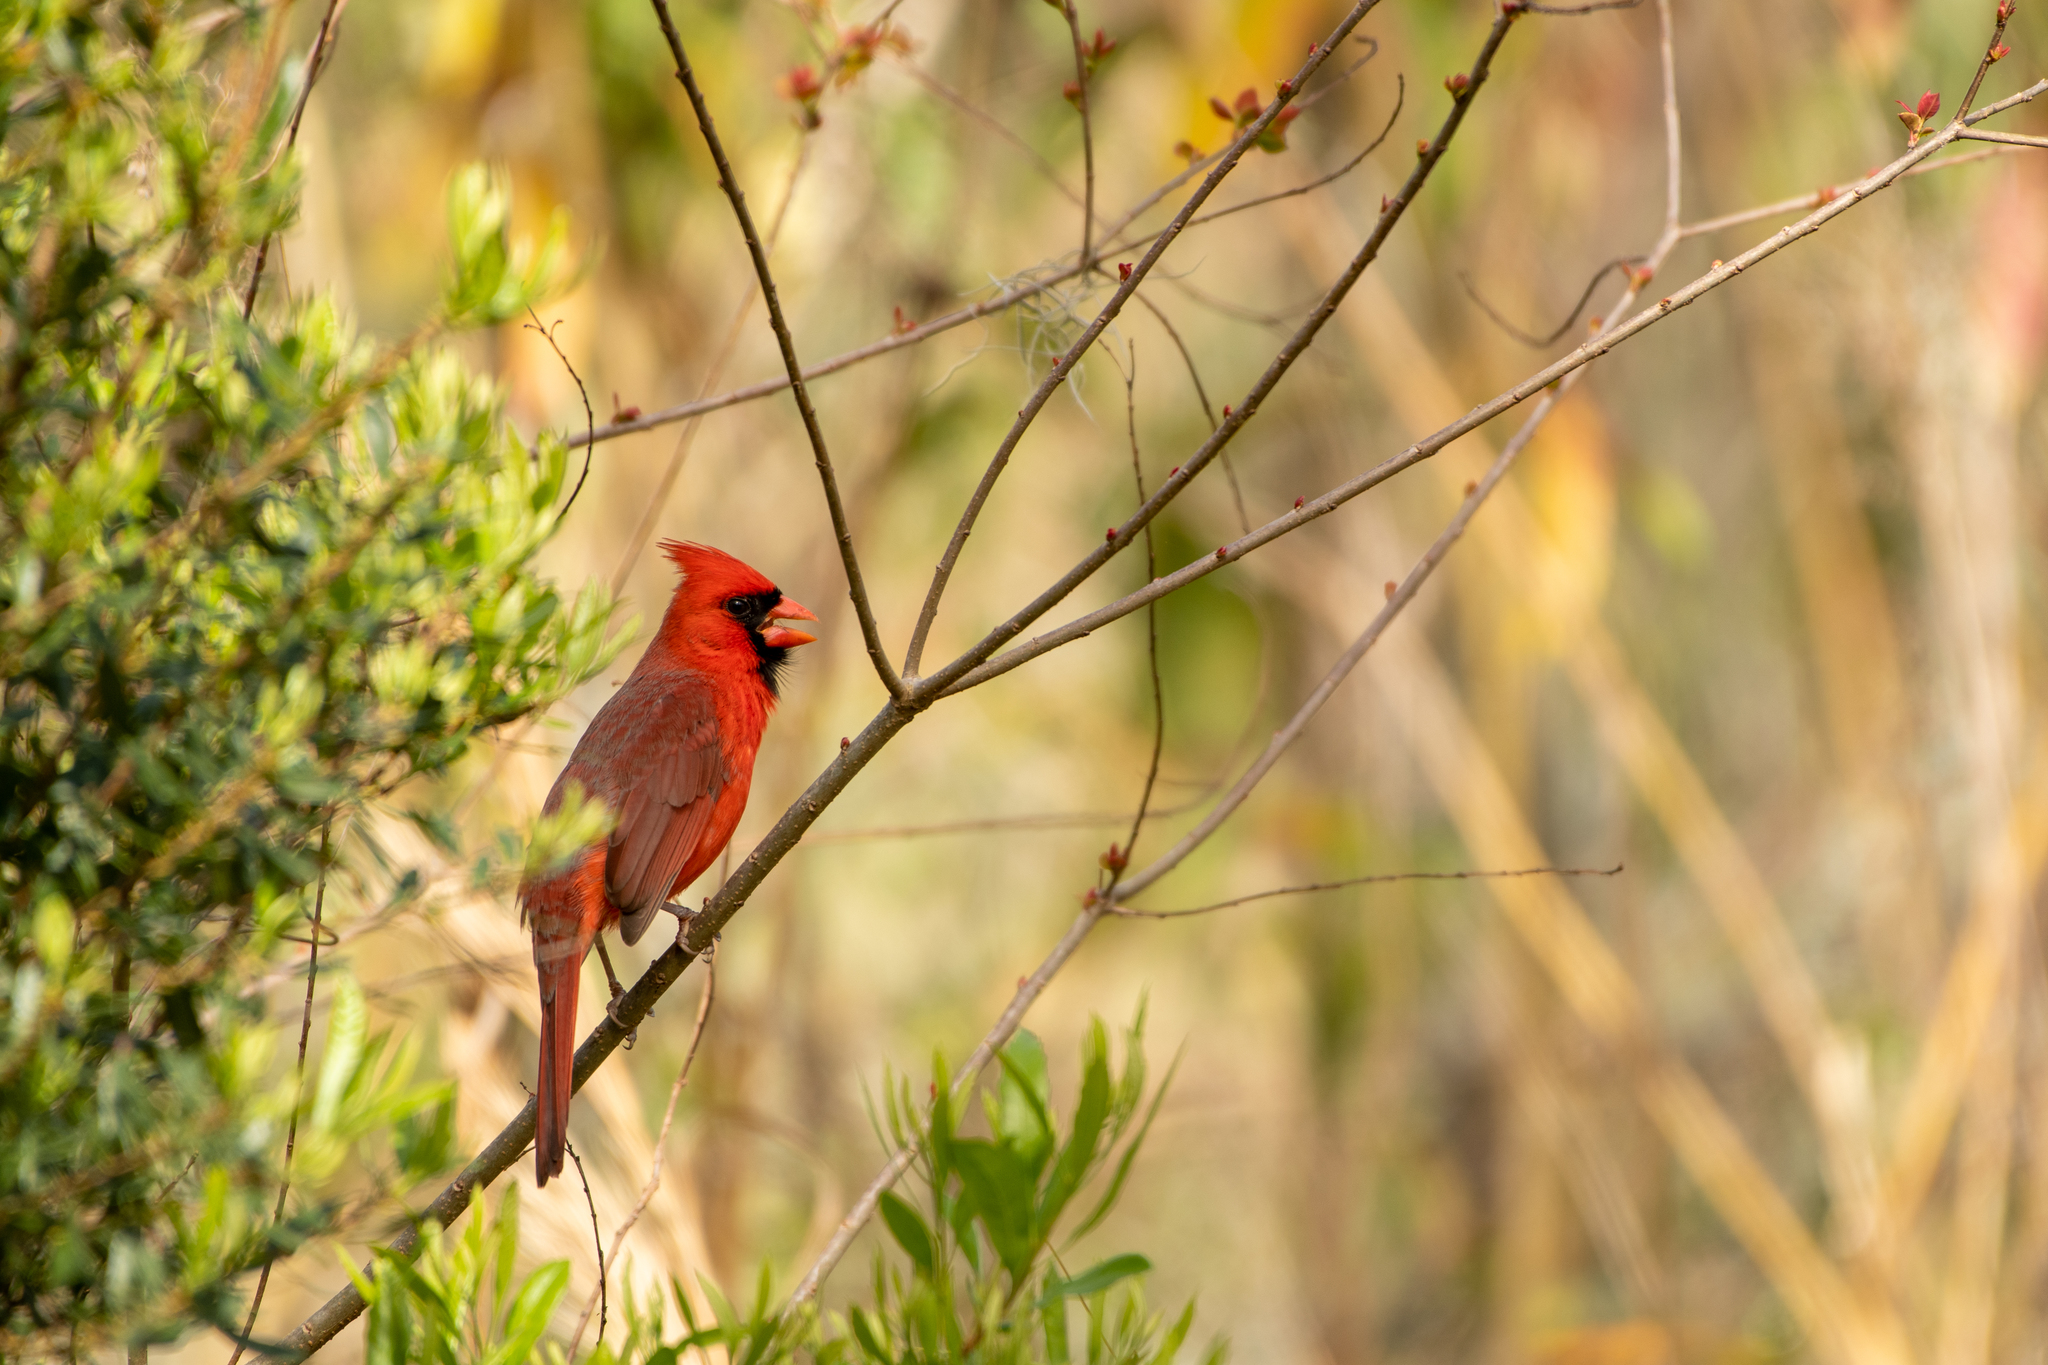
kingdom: Animalia
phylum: Chordata
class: Aves
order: Passeriformes
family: Cardinalidae
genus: Cardinalis
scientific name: Cardinalis cardinalis
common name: Northern cardinal
